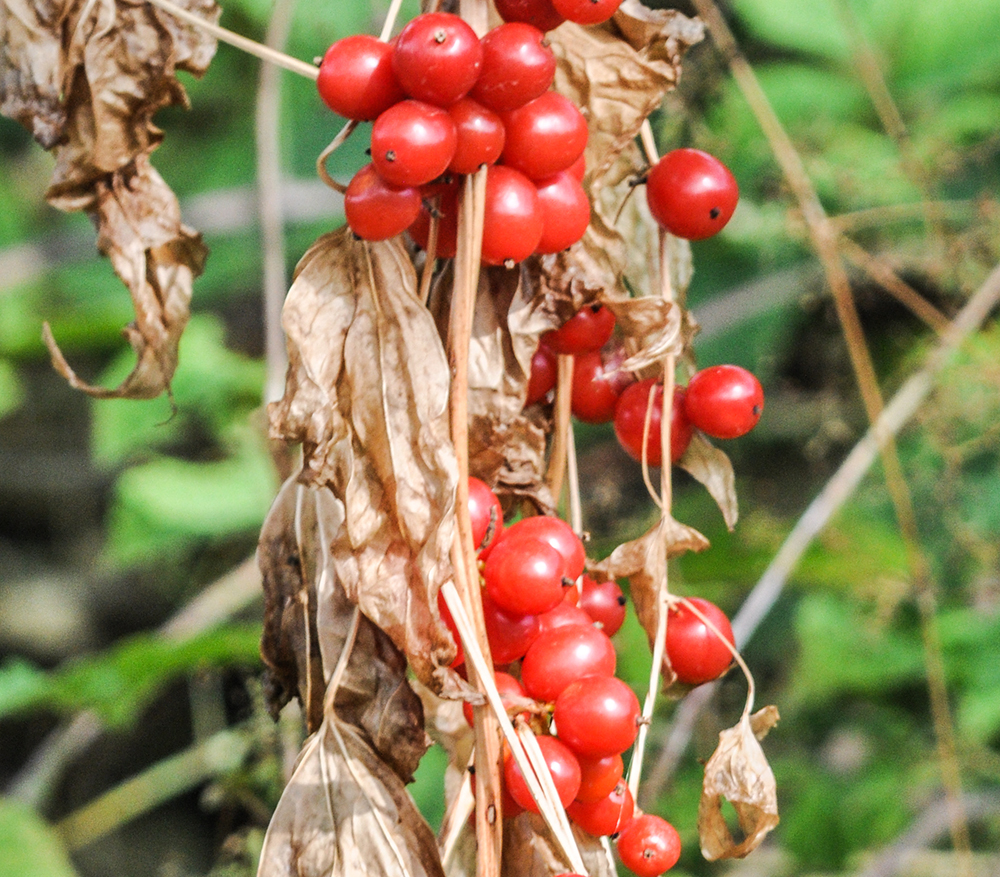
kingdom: Plantae
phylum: Tracheophyta
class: Liliopsida
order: Dioscoreales
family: Dioscoreaceae
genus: Dioscorea
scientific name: Dioscorea communis
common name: Black-bindweed
